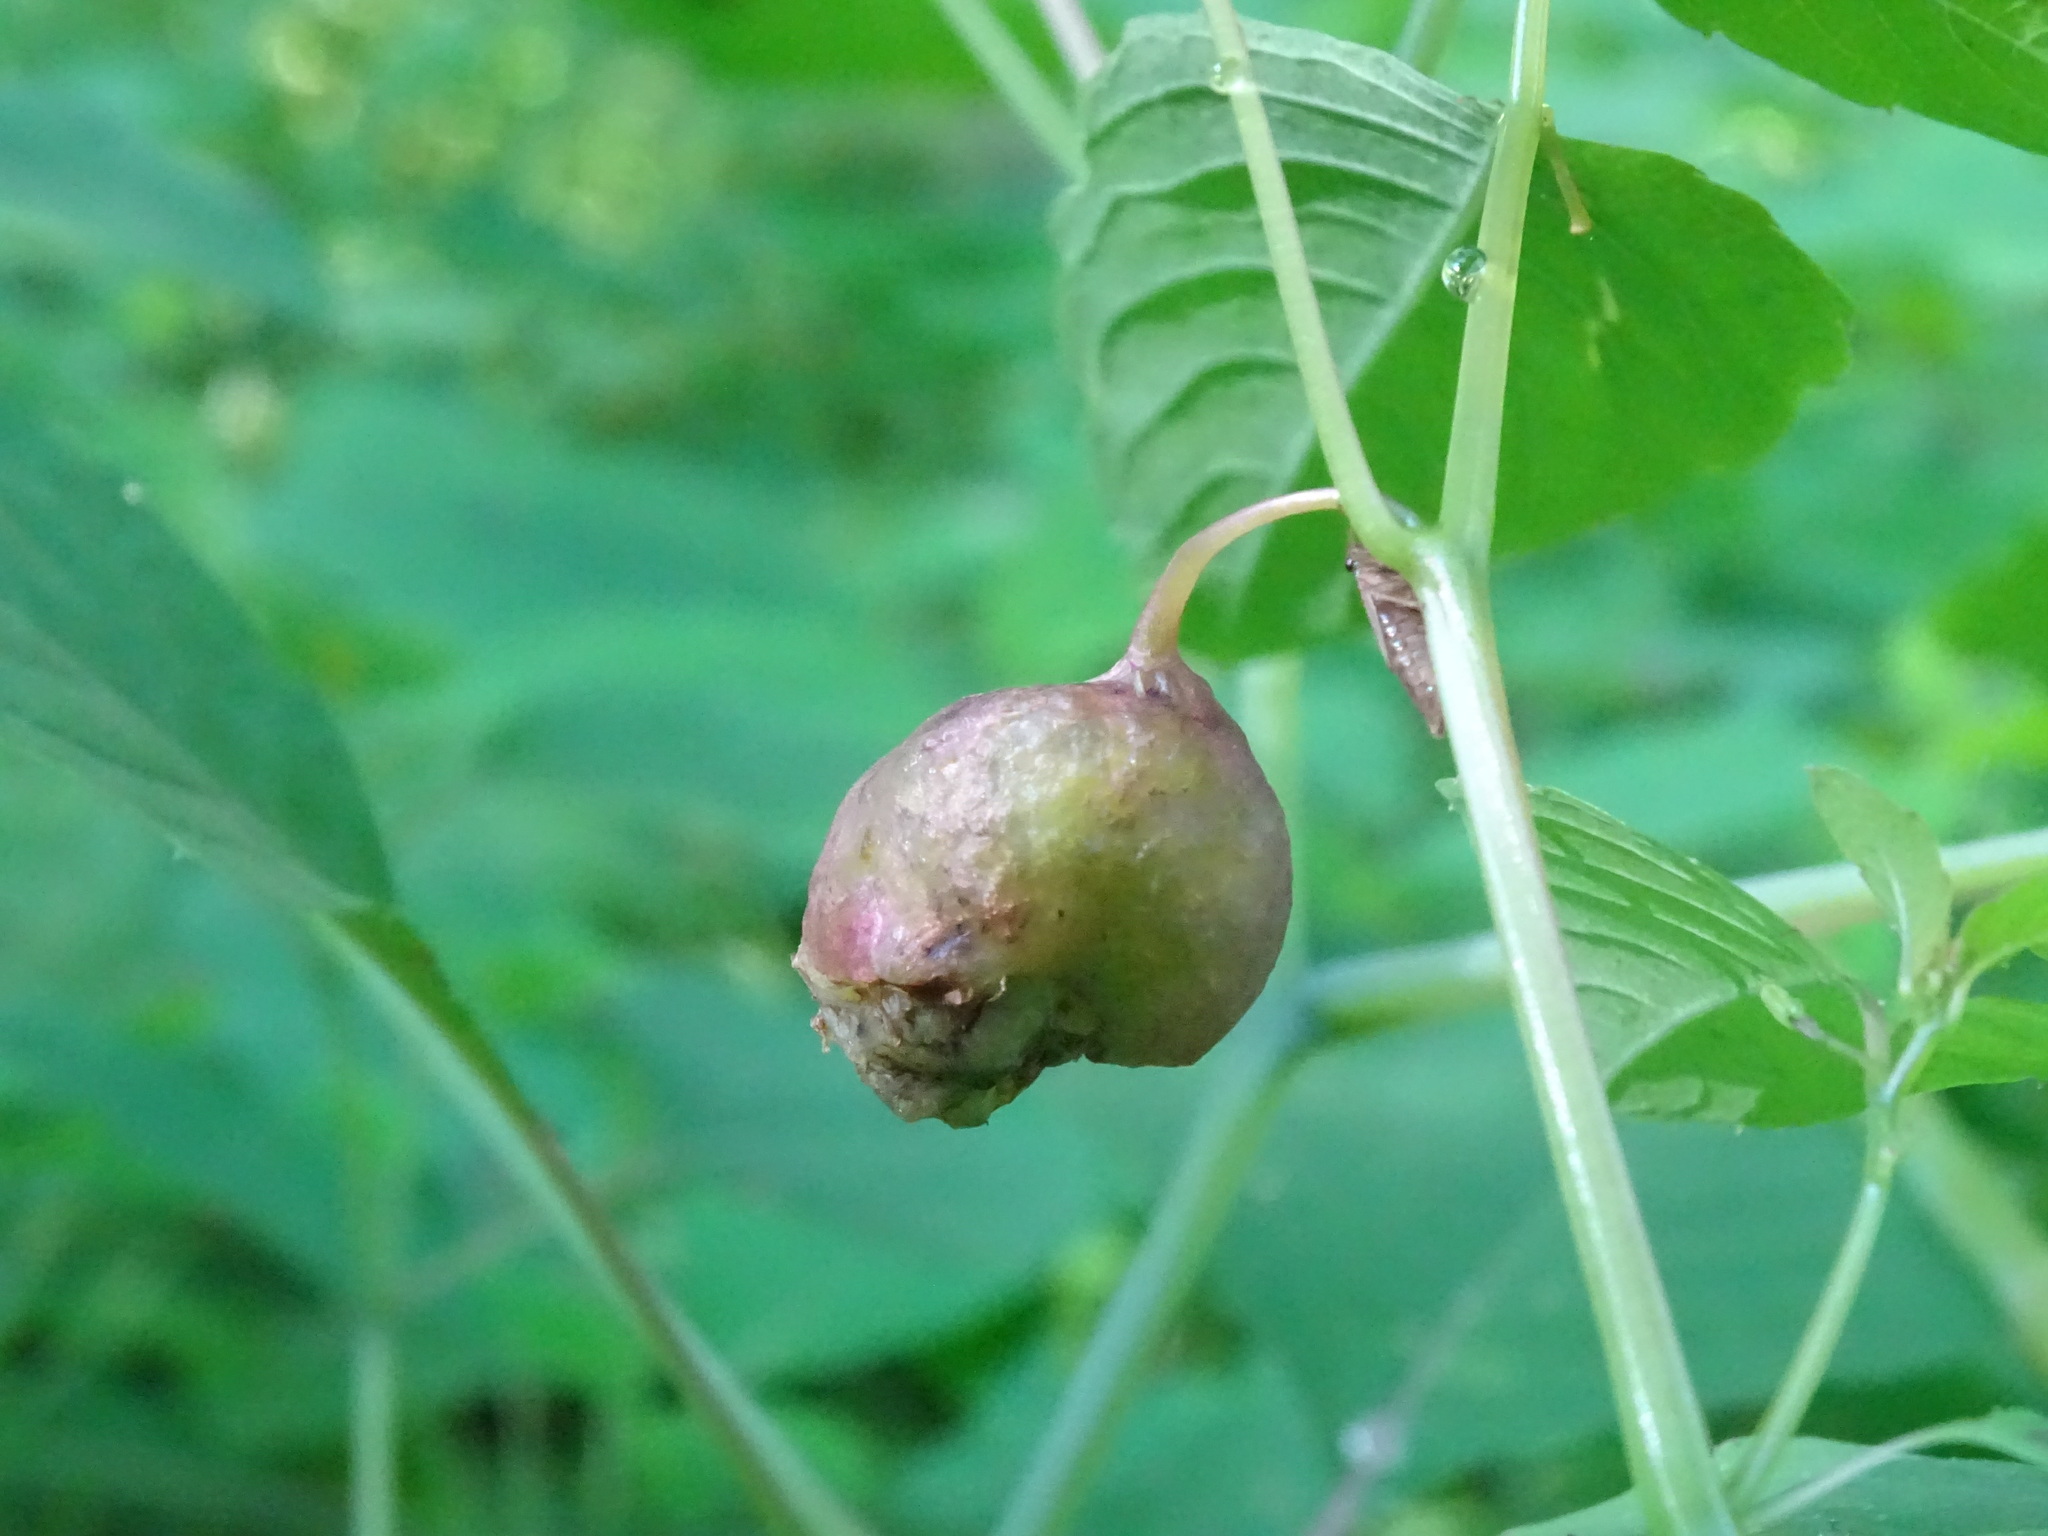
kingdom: Animalia
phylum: Arthropoda
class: Insecta
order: Diptera
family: Cecidomyiidae
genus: Schizomyia
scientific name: Schizomyia impatientis
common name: Jewelweed gall midge
